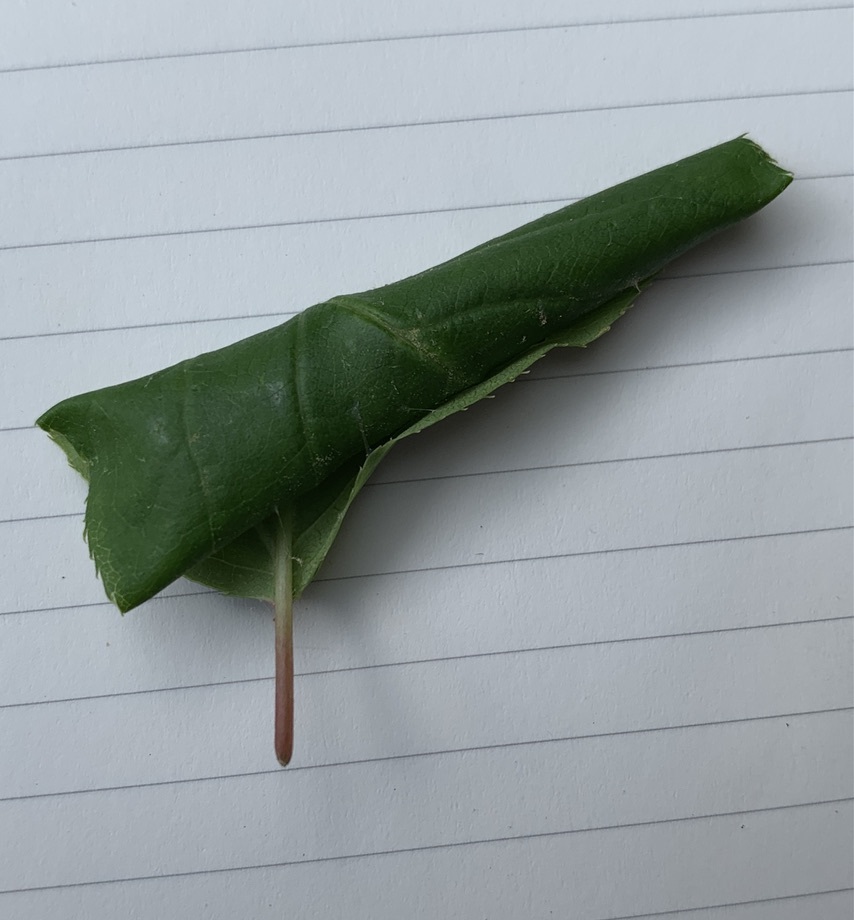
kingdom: Animalia
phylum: Arthropoda
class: Insecta
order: Lepidoptera
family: Crambidae
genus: Herpetogramma
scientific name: Herpetogramma thestealis
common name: Zigzag herpetogramma moth
